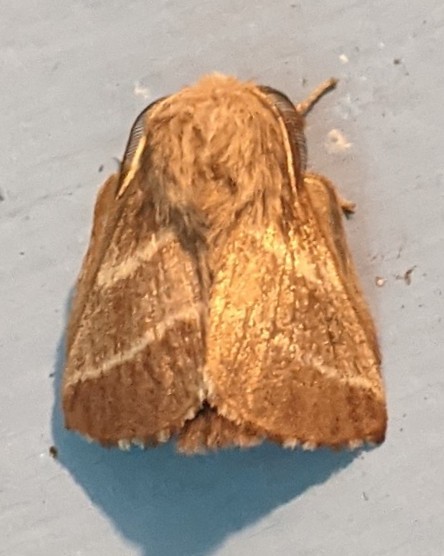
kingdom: Animalia
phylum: Arthropoda
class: Insecta
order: Lepidoptera
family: Lasiocampidae
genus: Malacosoma
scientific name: Malacosoma americana
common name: Eastern tent caterpillar moth
